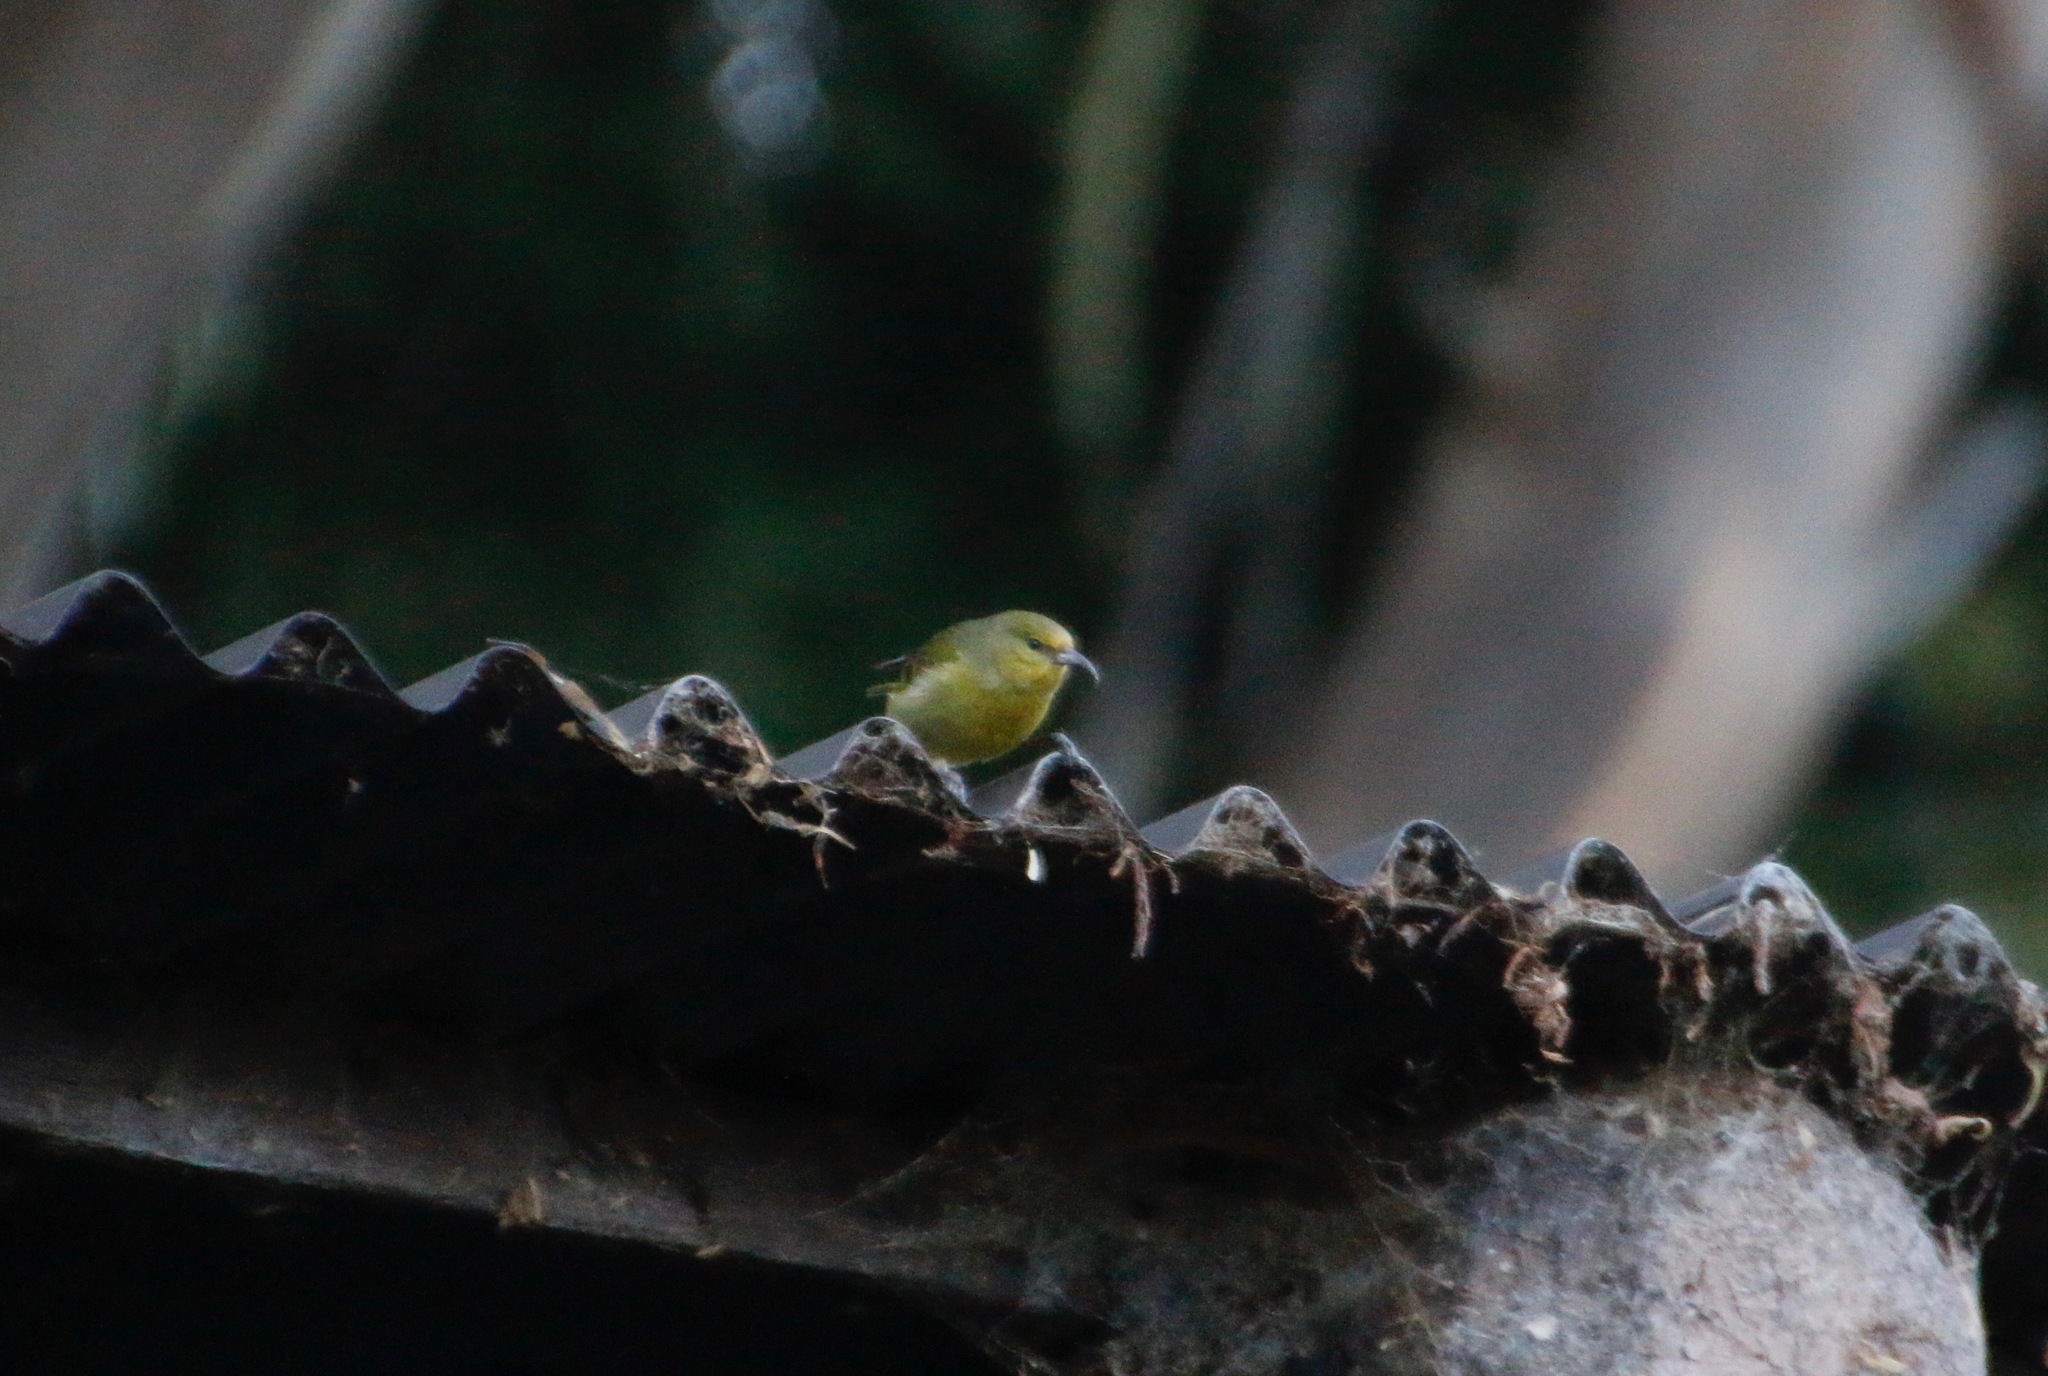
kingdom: Animalia
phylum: Chordata
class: Aves
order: Passeriformes
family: Fringillidae
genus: Chlorodrepanis
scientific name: Chlorodrepanis virens
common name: Hawaii amakihi
